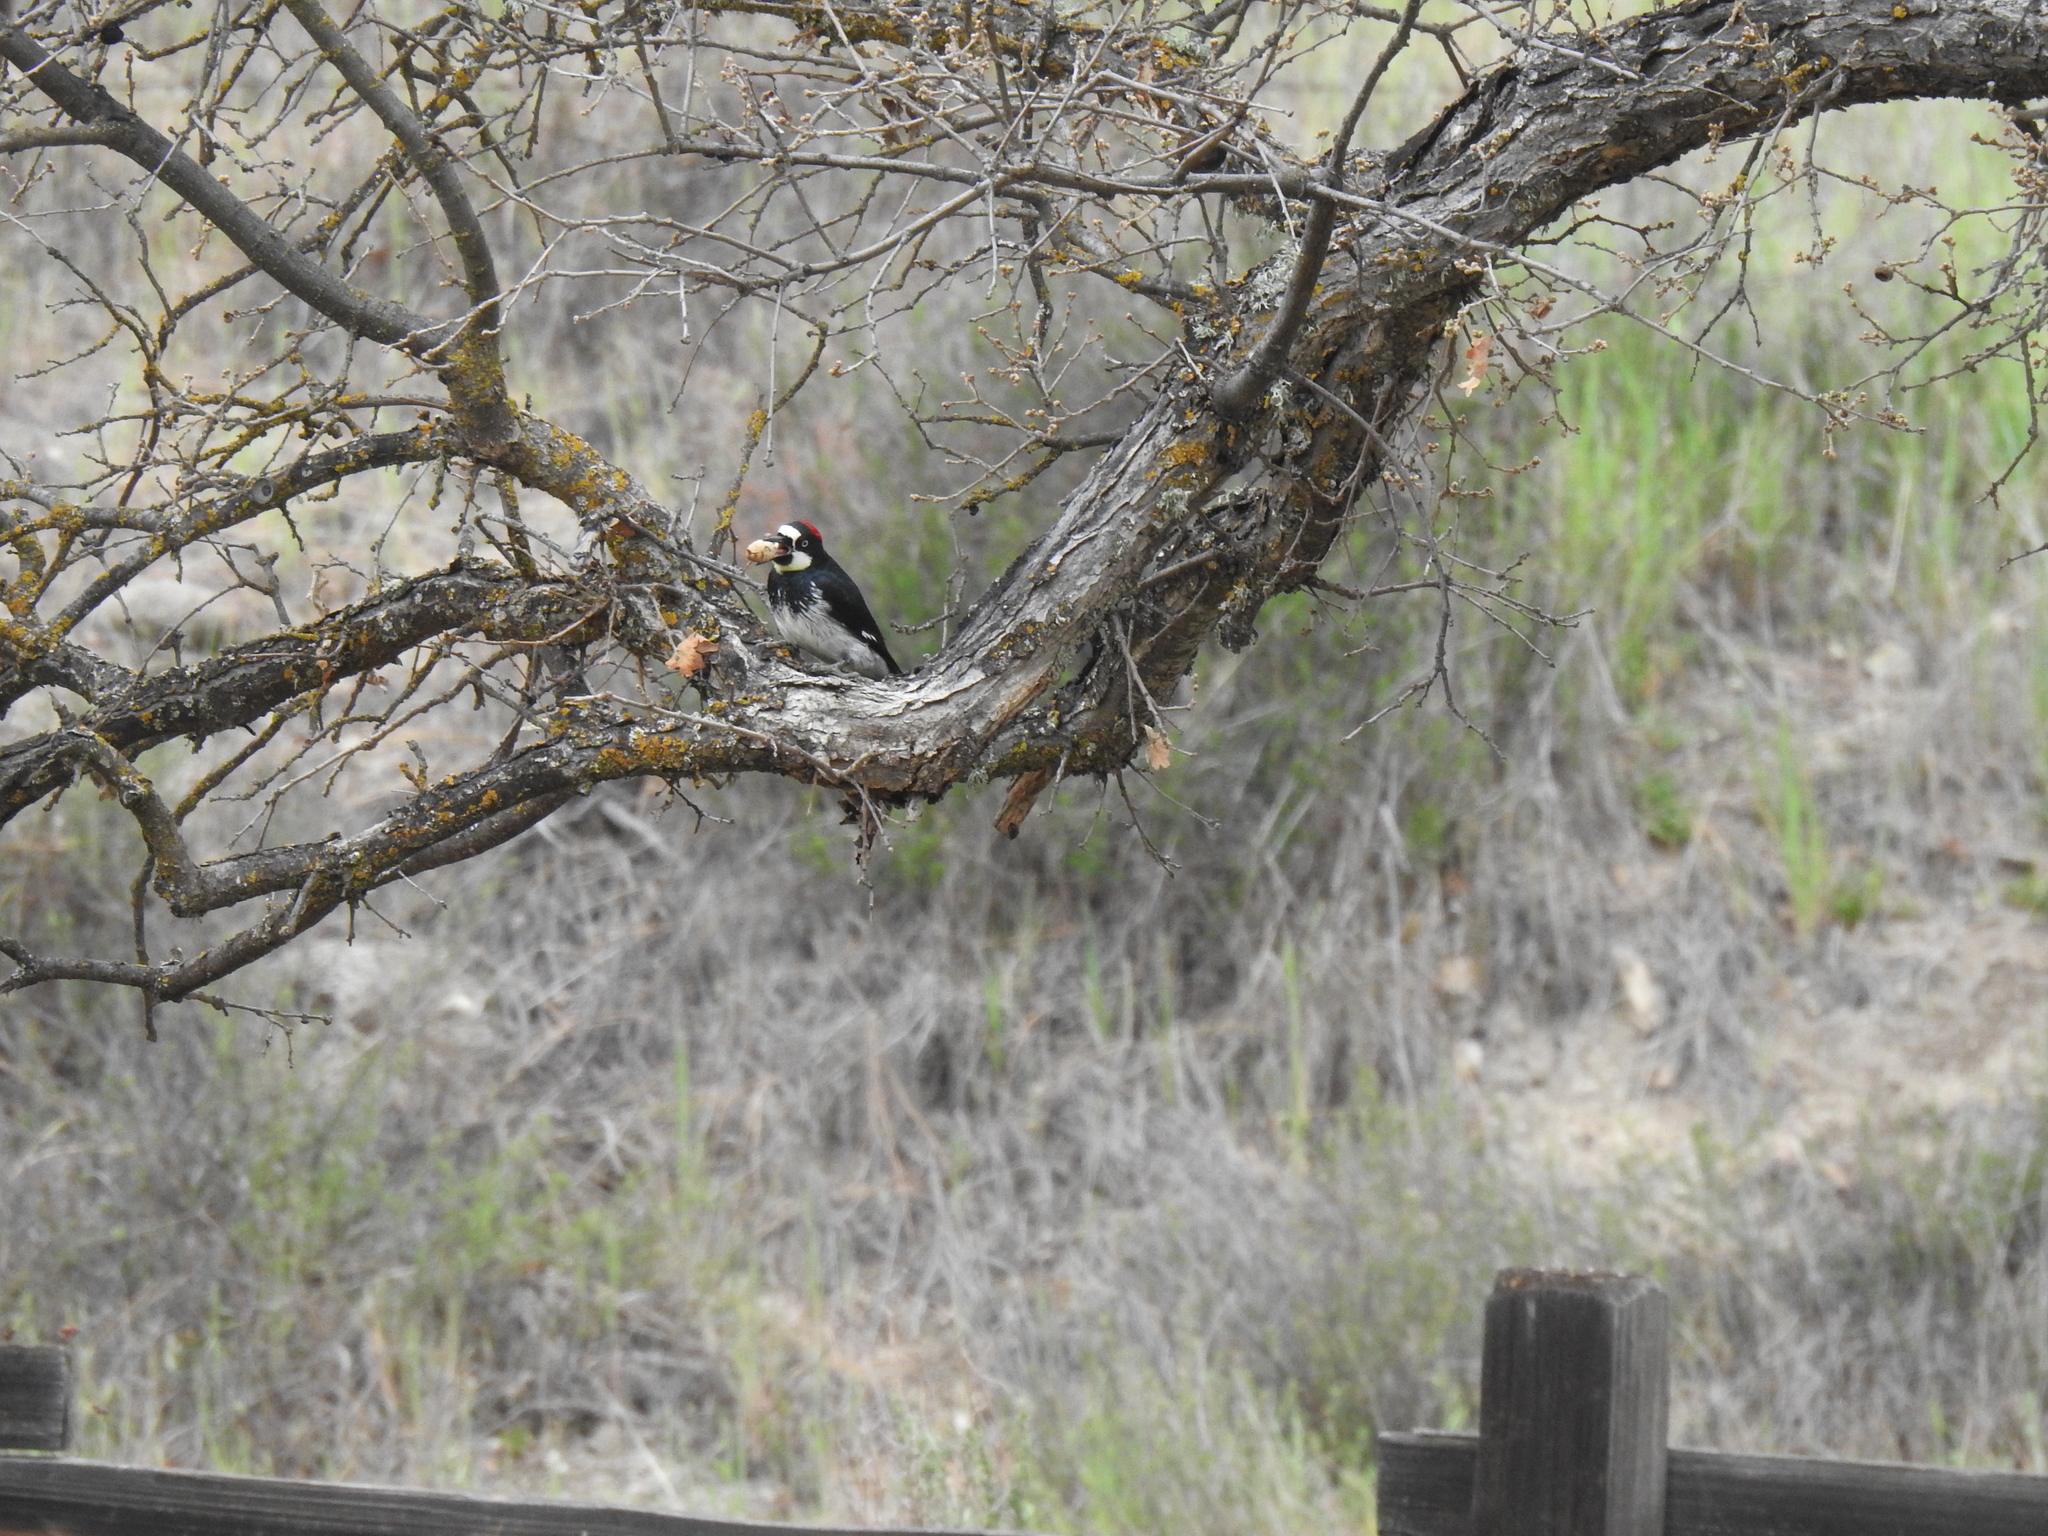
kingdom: Animalia
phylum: Chordata
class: Aves
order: Piciformes
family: Picidae
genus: Melanerpes
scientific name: Melanerpes formicivorus
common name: Acorn woodpecker
